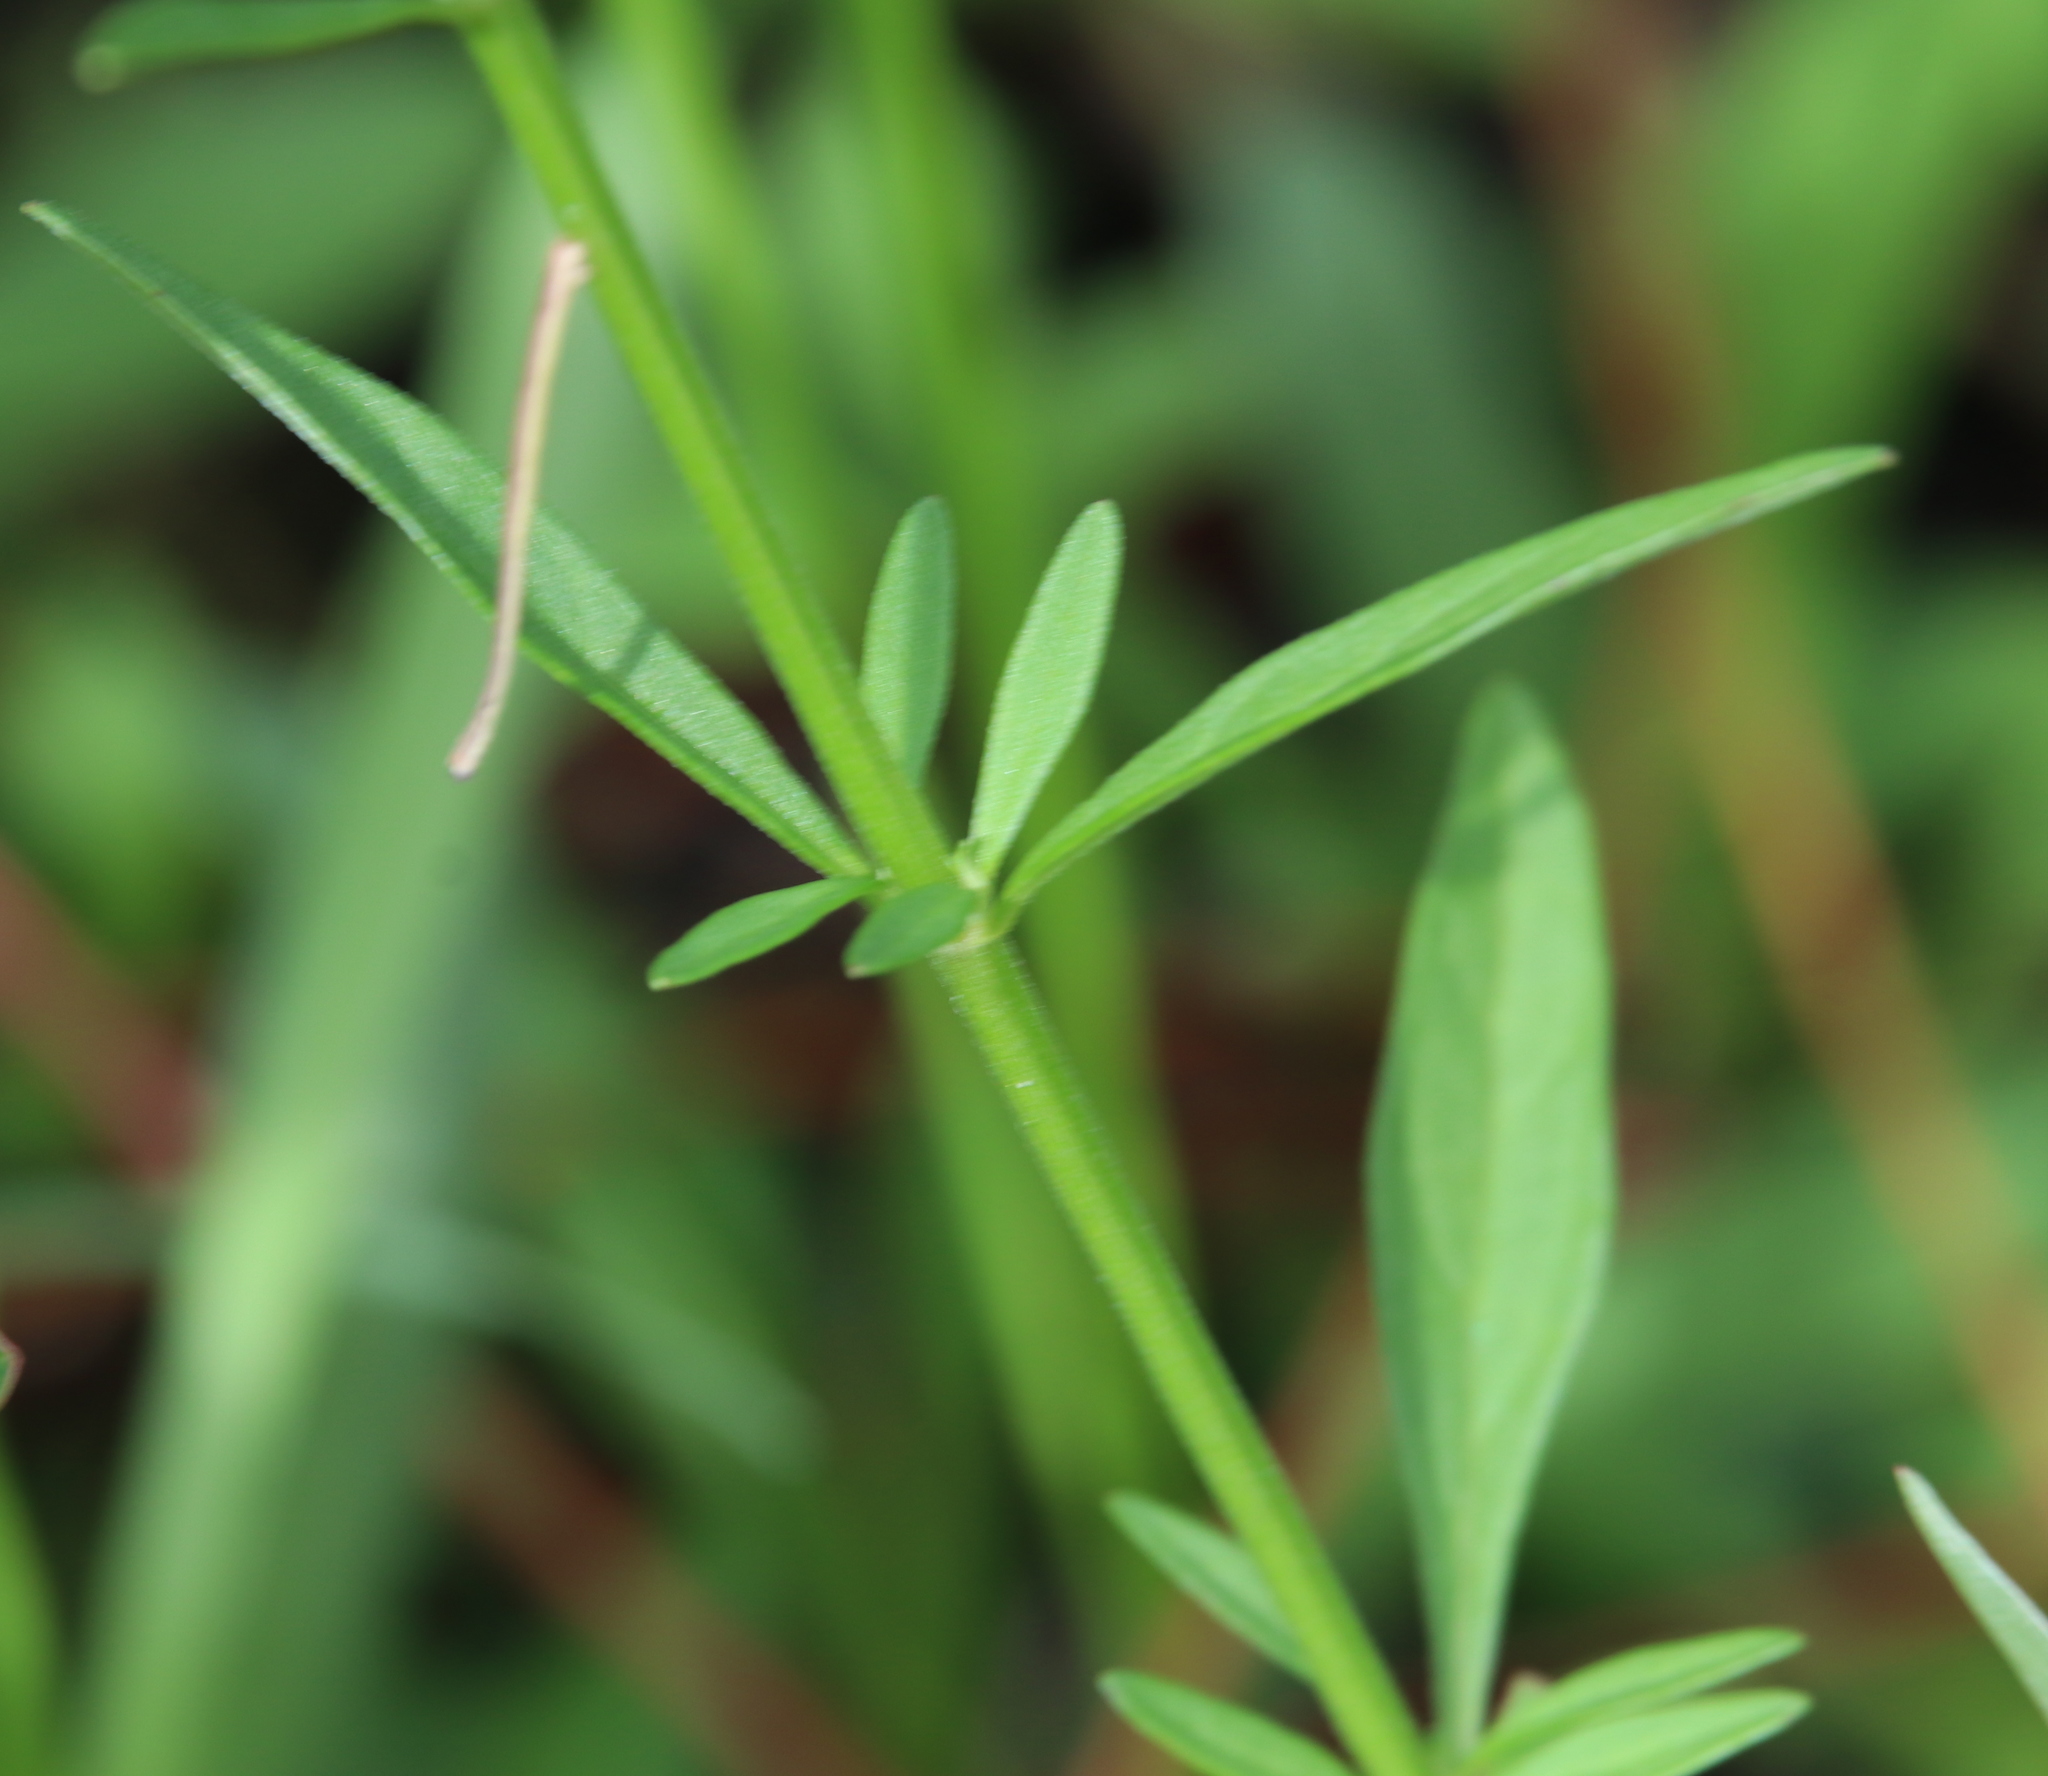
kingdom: Plantae
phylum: Tracheophyta
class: Magnoliopsida
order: Lamiales
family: Lamiaceae
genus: Scutellaria
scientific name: Scutellaria integrifolia
